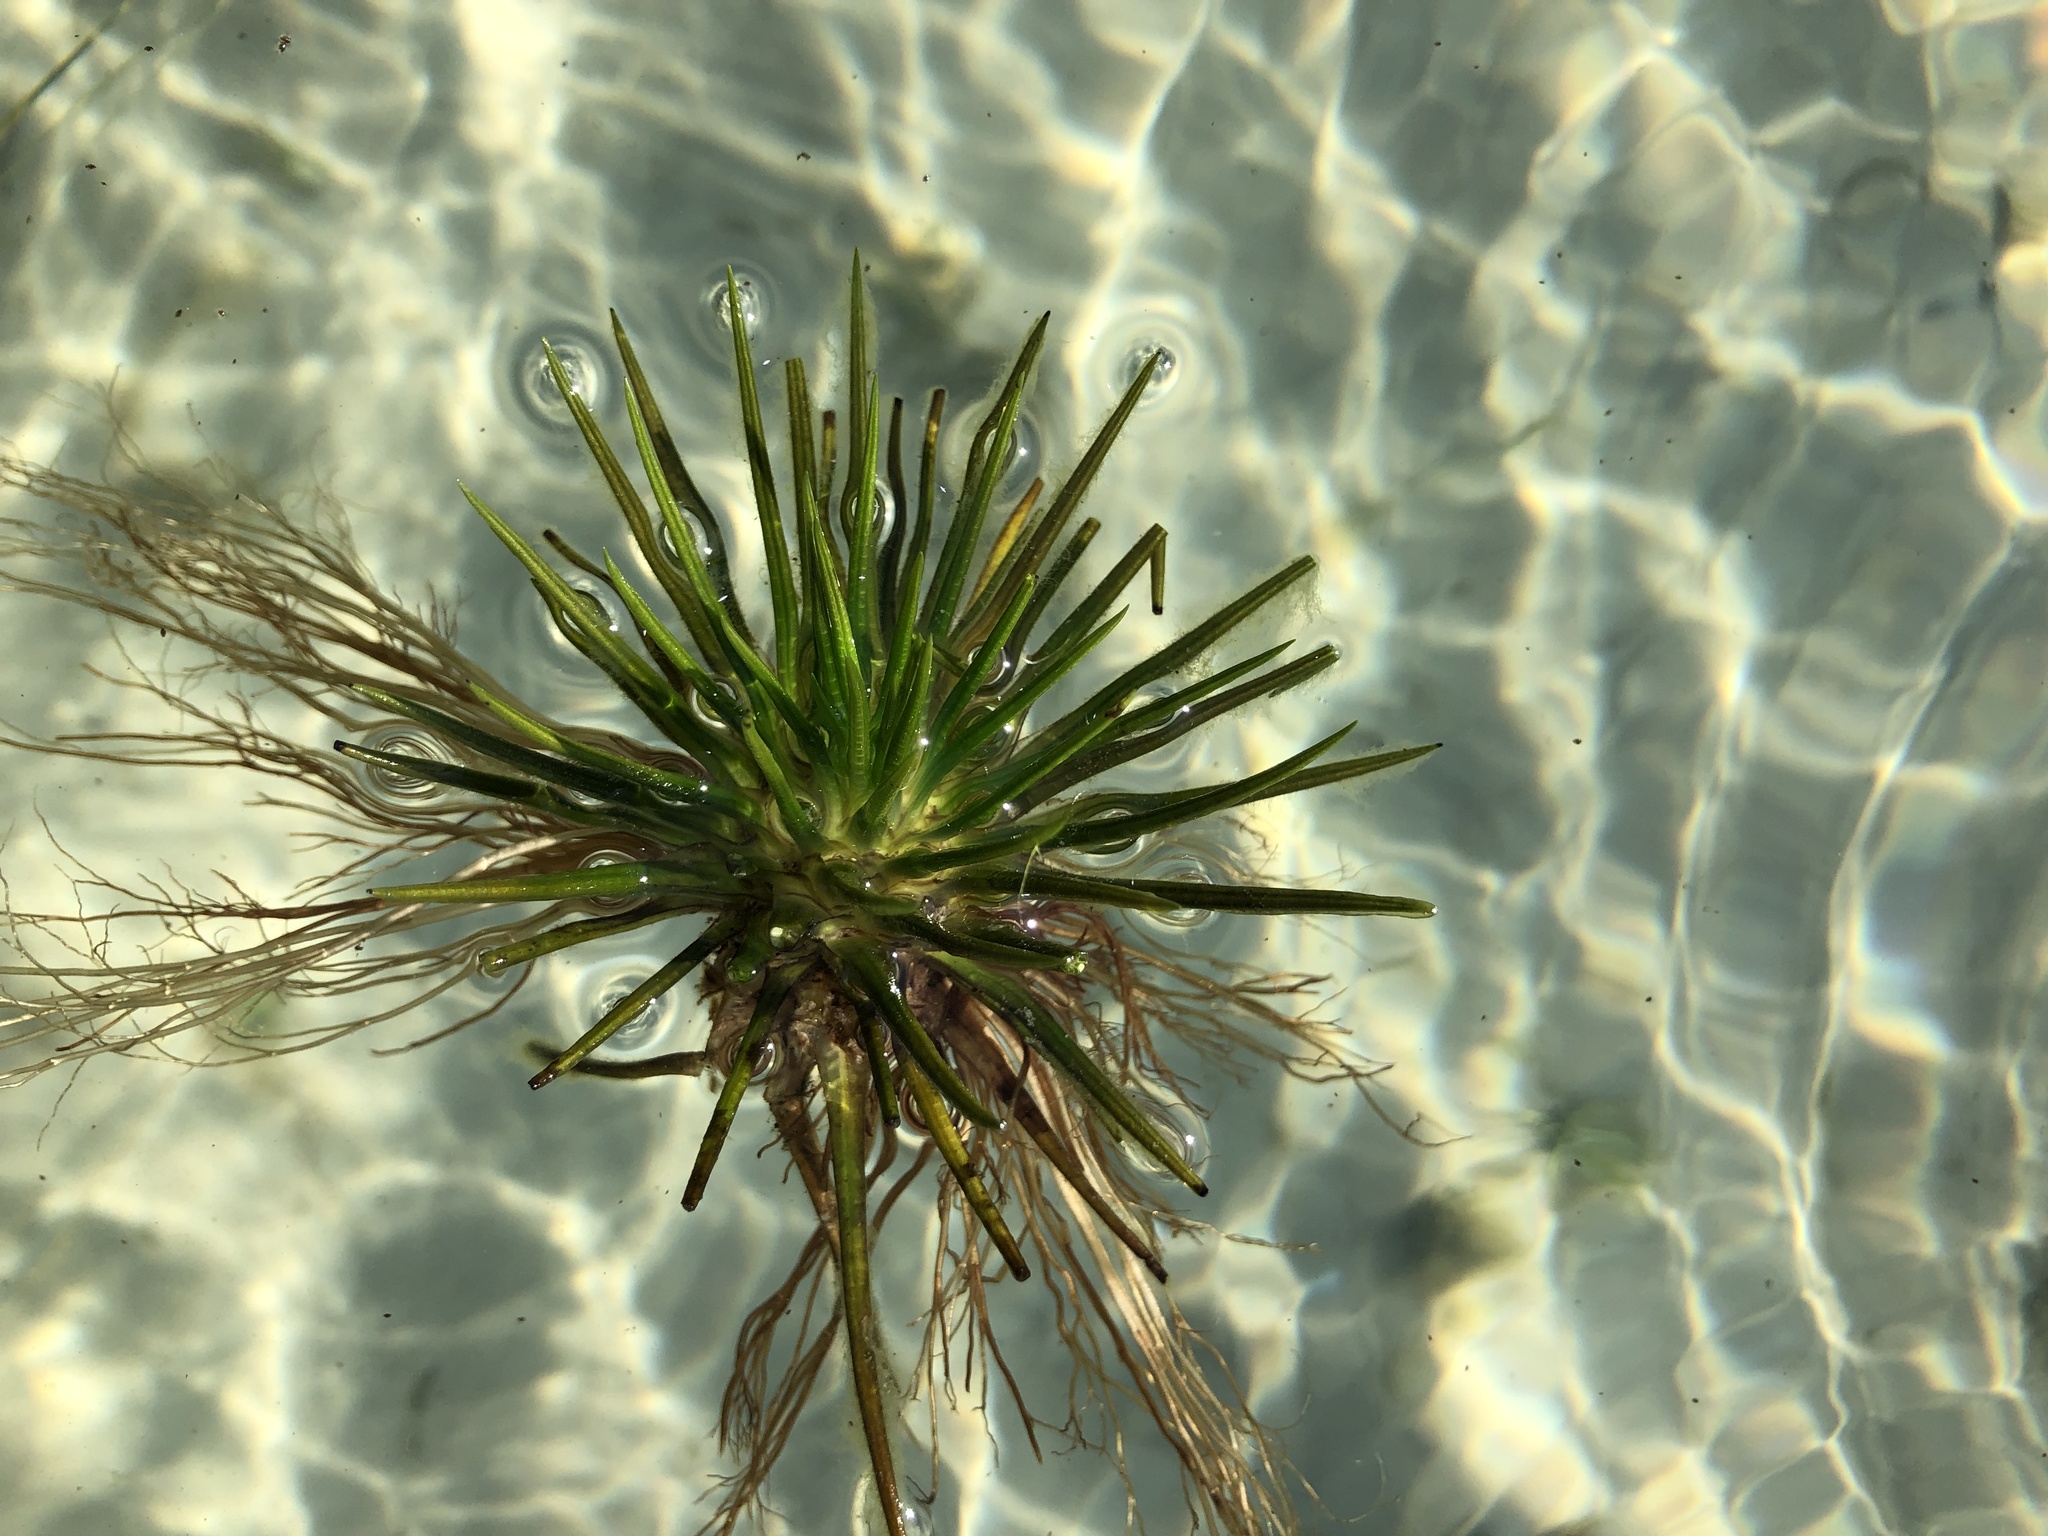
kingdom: Plantae
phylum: Tracheophyta
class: Lycopodiopsida
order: Isoetales
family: Isoetaceae
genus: Isoetes
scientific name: Isoetes lacustris
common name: Common quillwort
